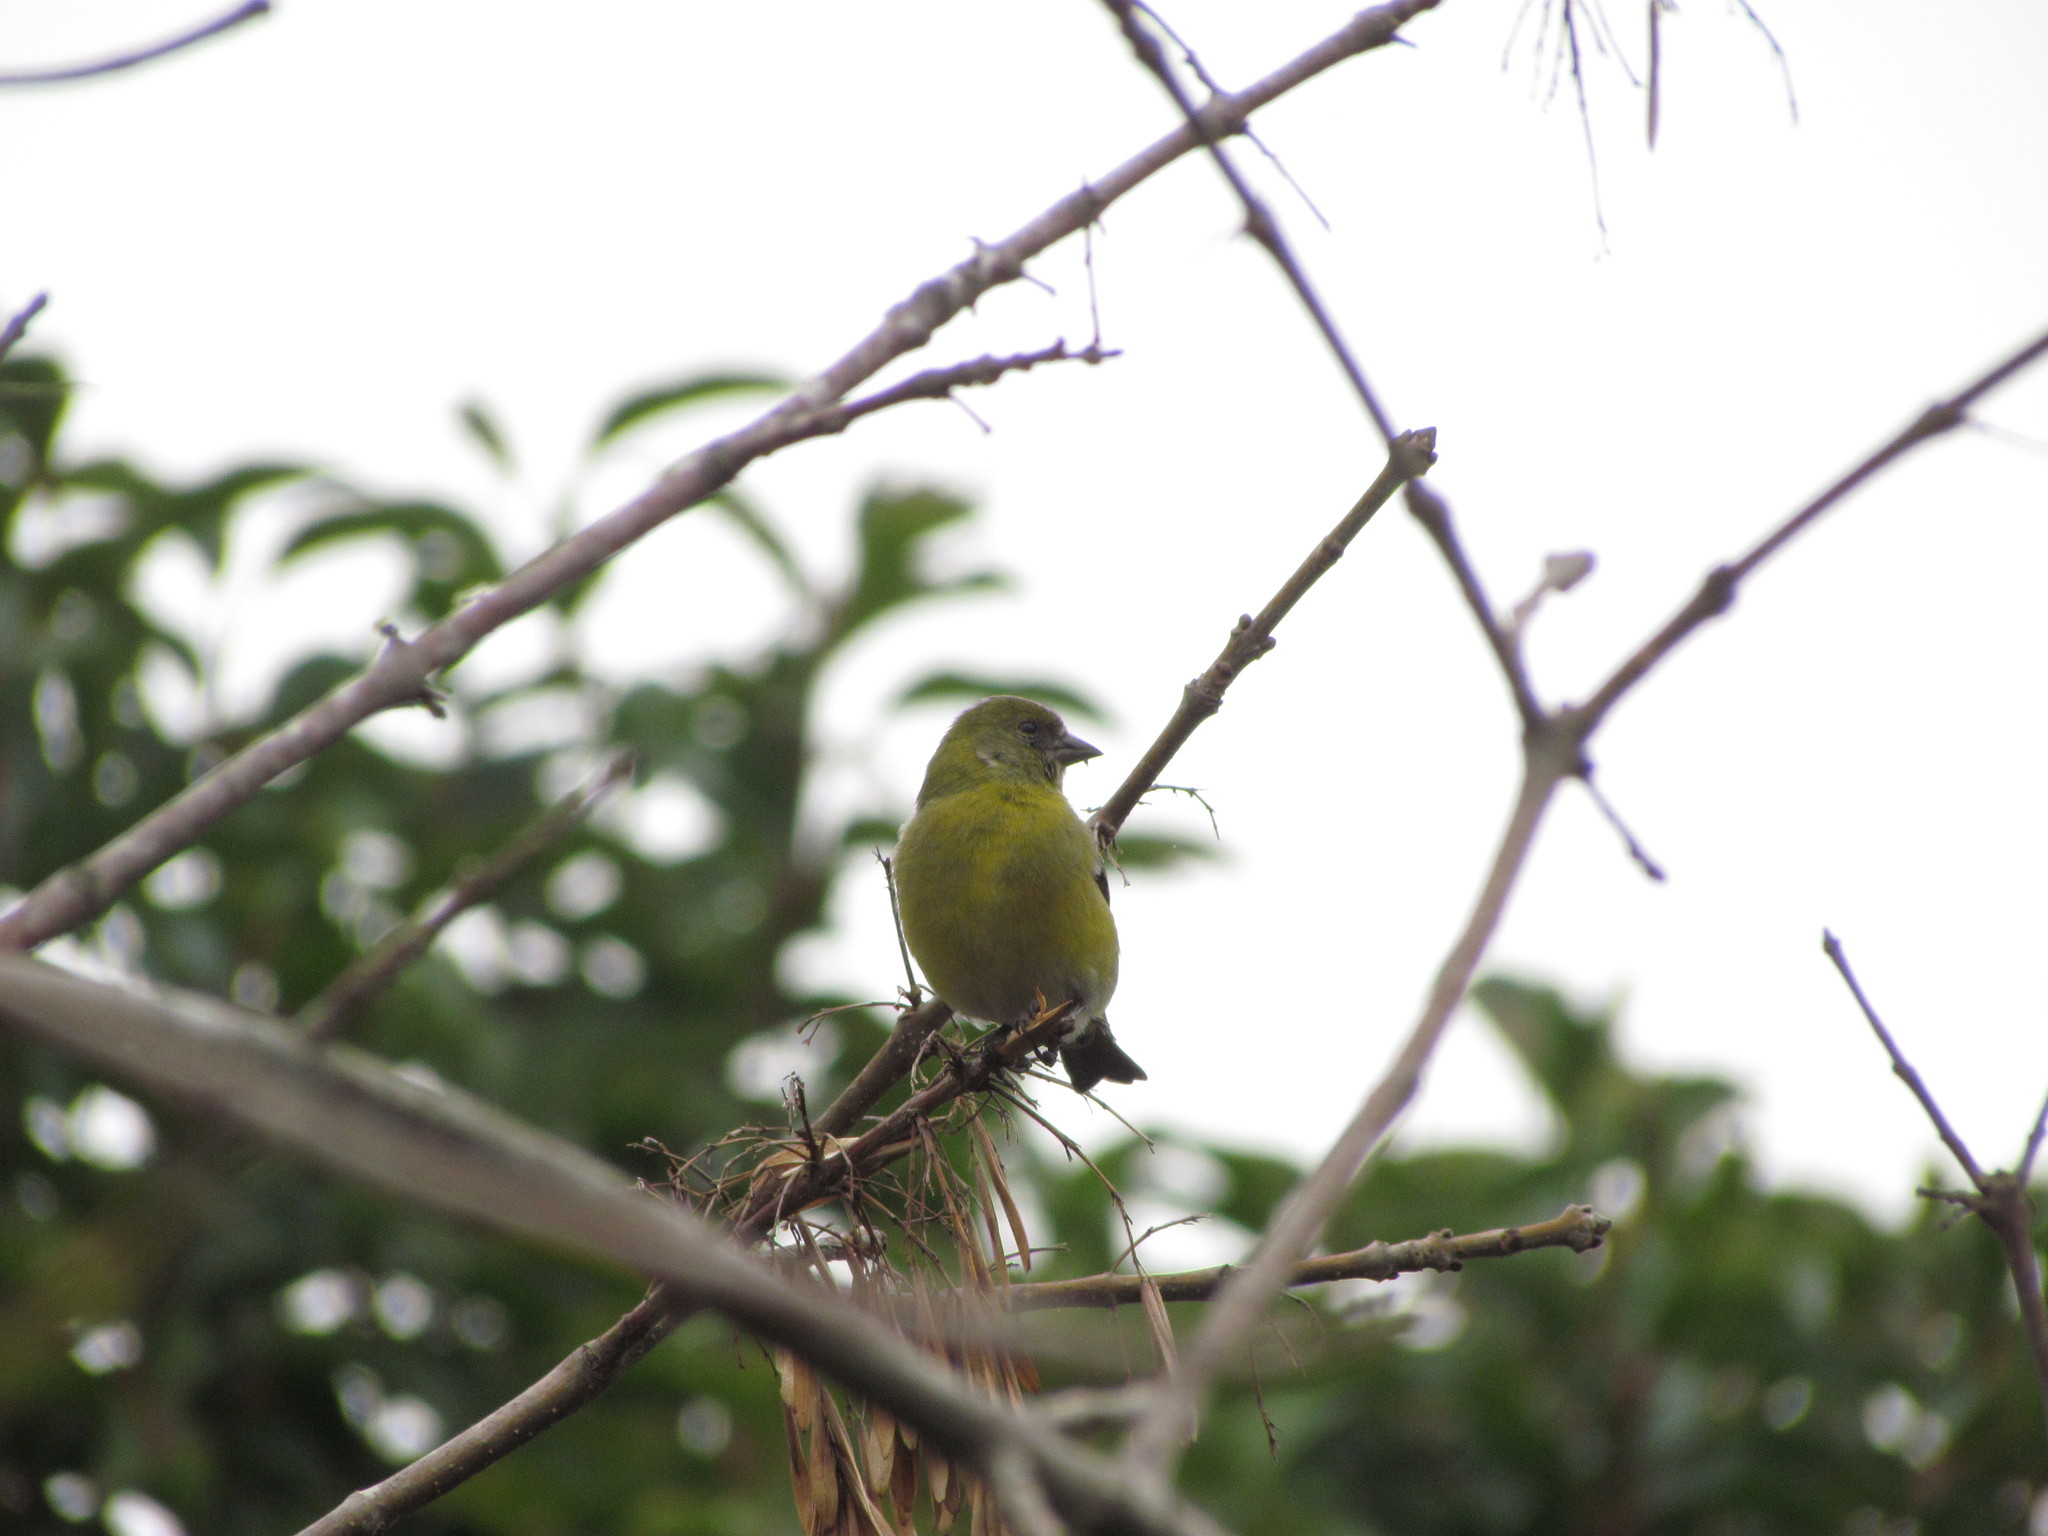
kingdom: Animalia
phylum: Chordata
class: Aves
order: Passeriformes
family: Fringillidae
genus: Spinus
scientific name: Spinus magellanicus
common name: Hooded siskin
